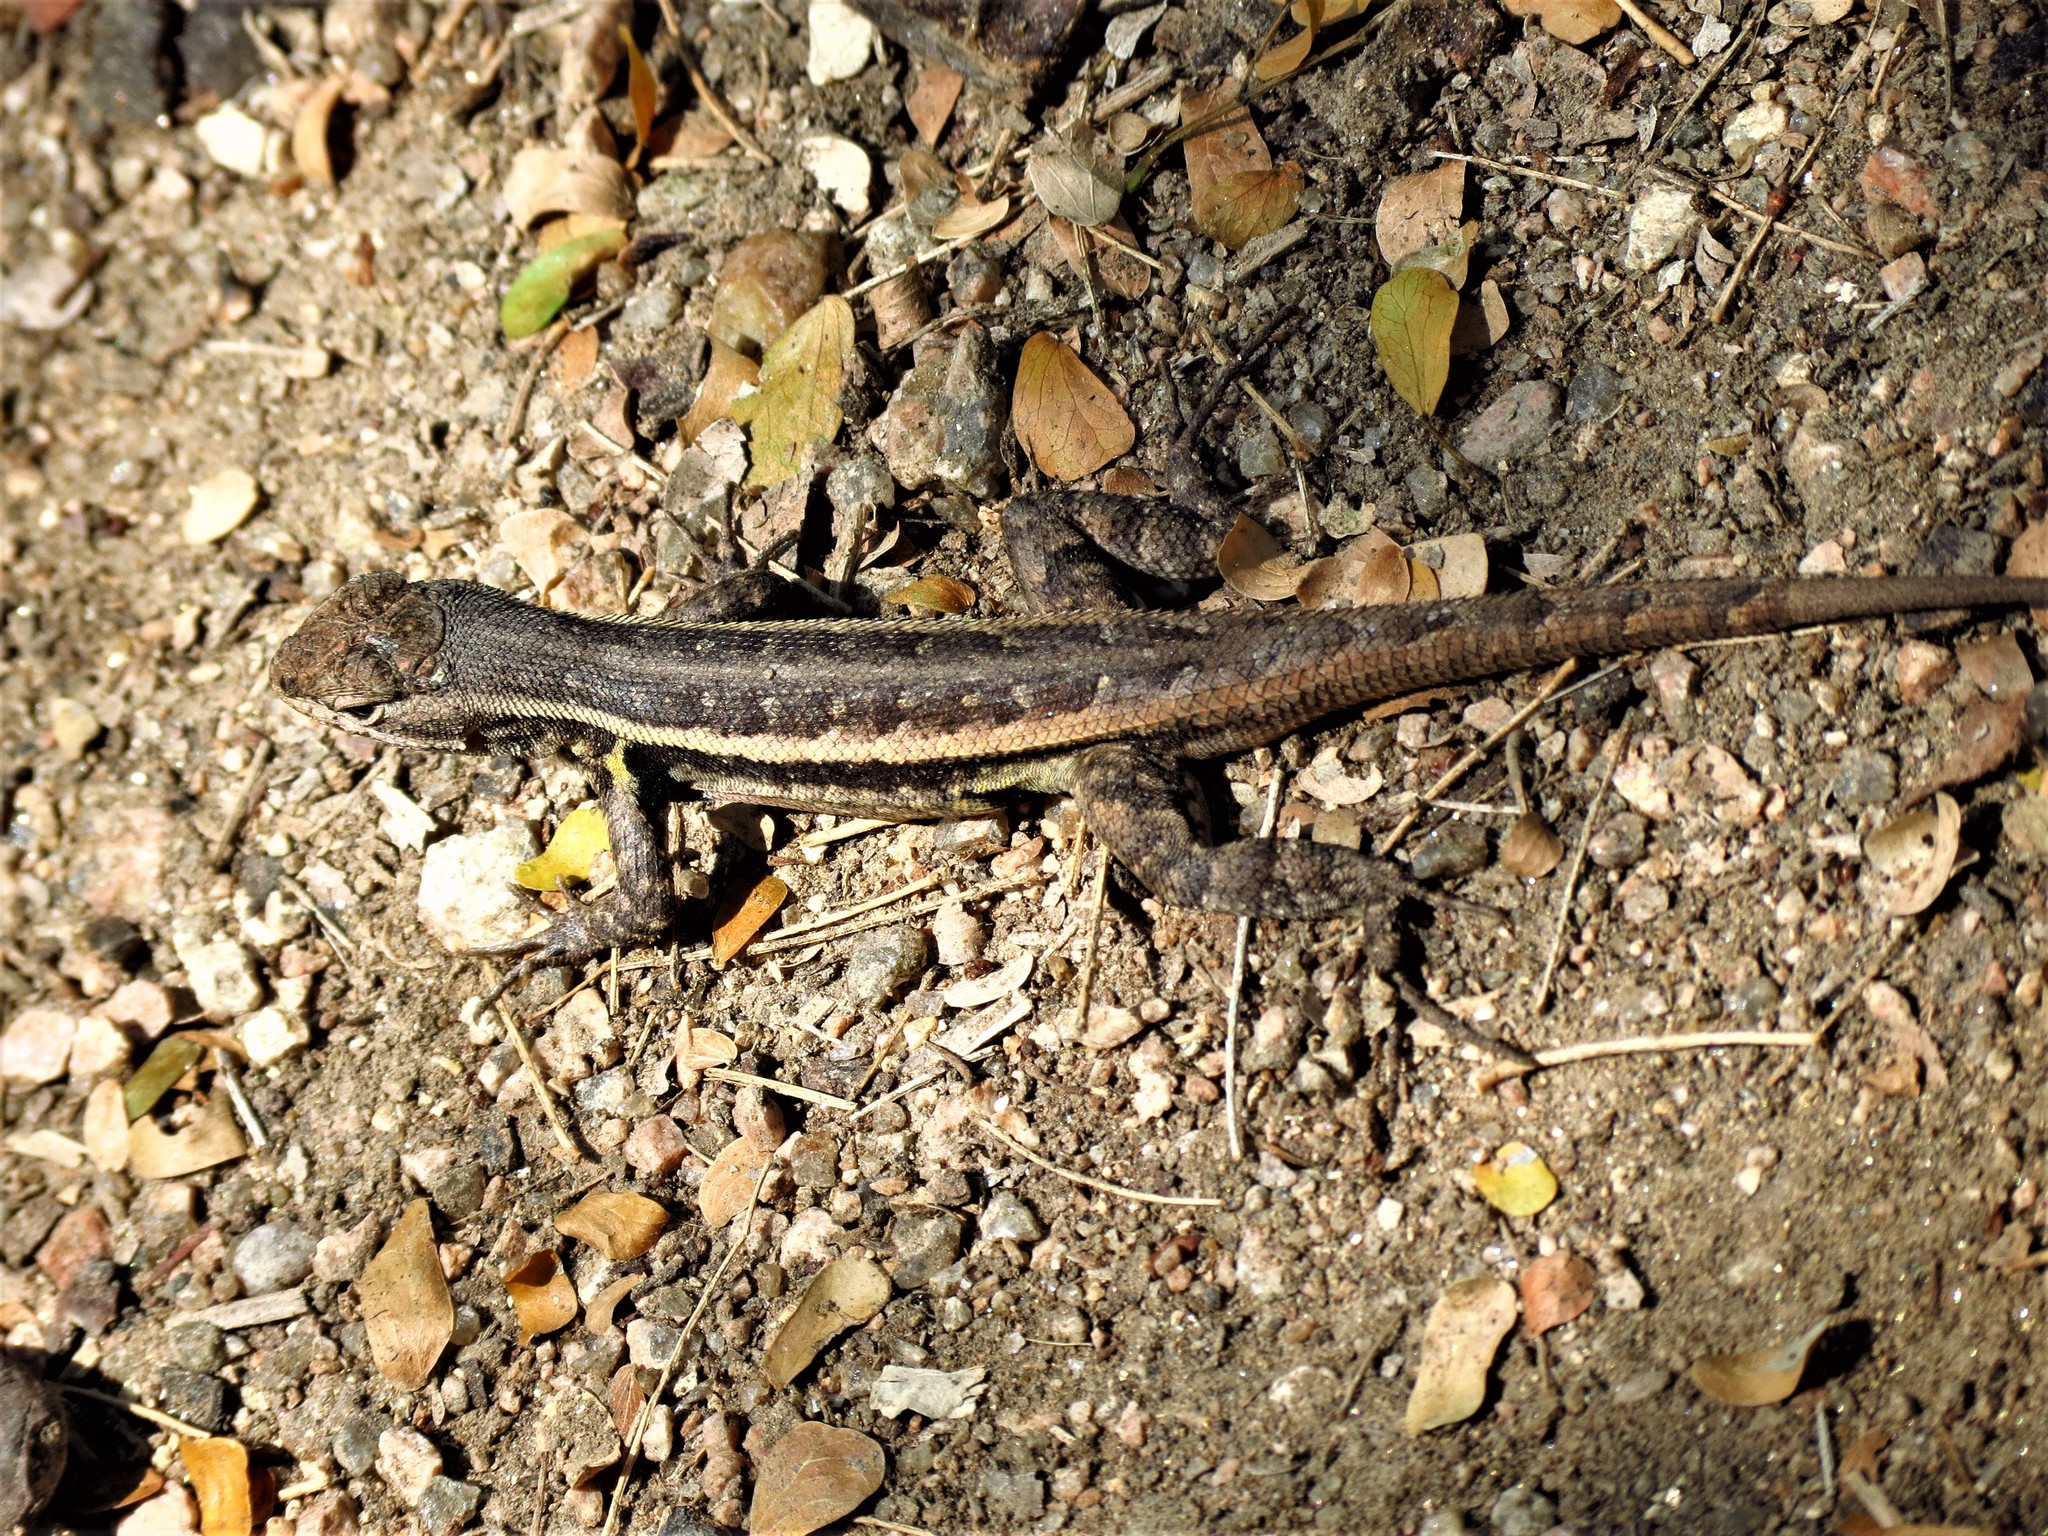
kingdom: Animalia
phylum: Chordata
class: Squamata
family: Phrynosomatidae
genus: Sceloporus
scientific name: Sceloporus variabilis
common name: Rosebelly lizard
